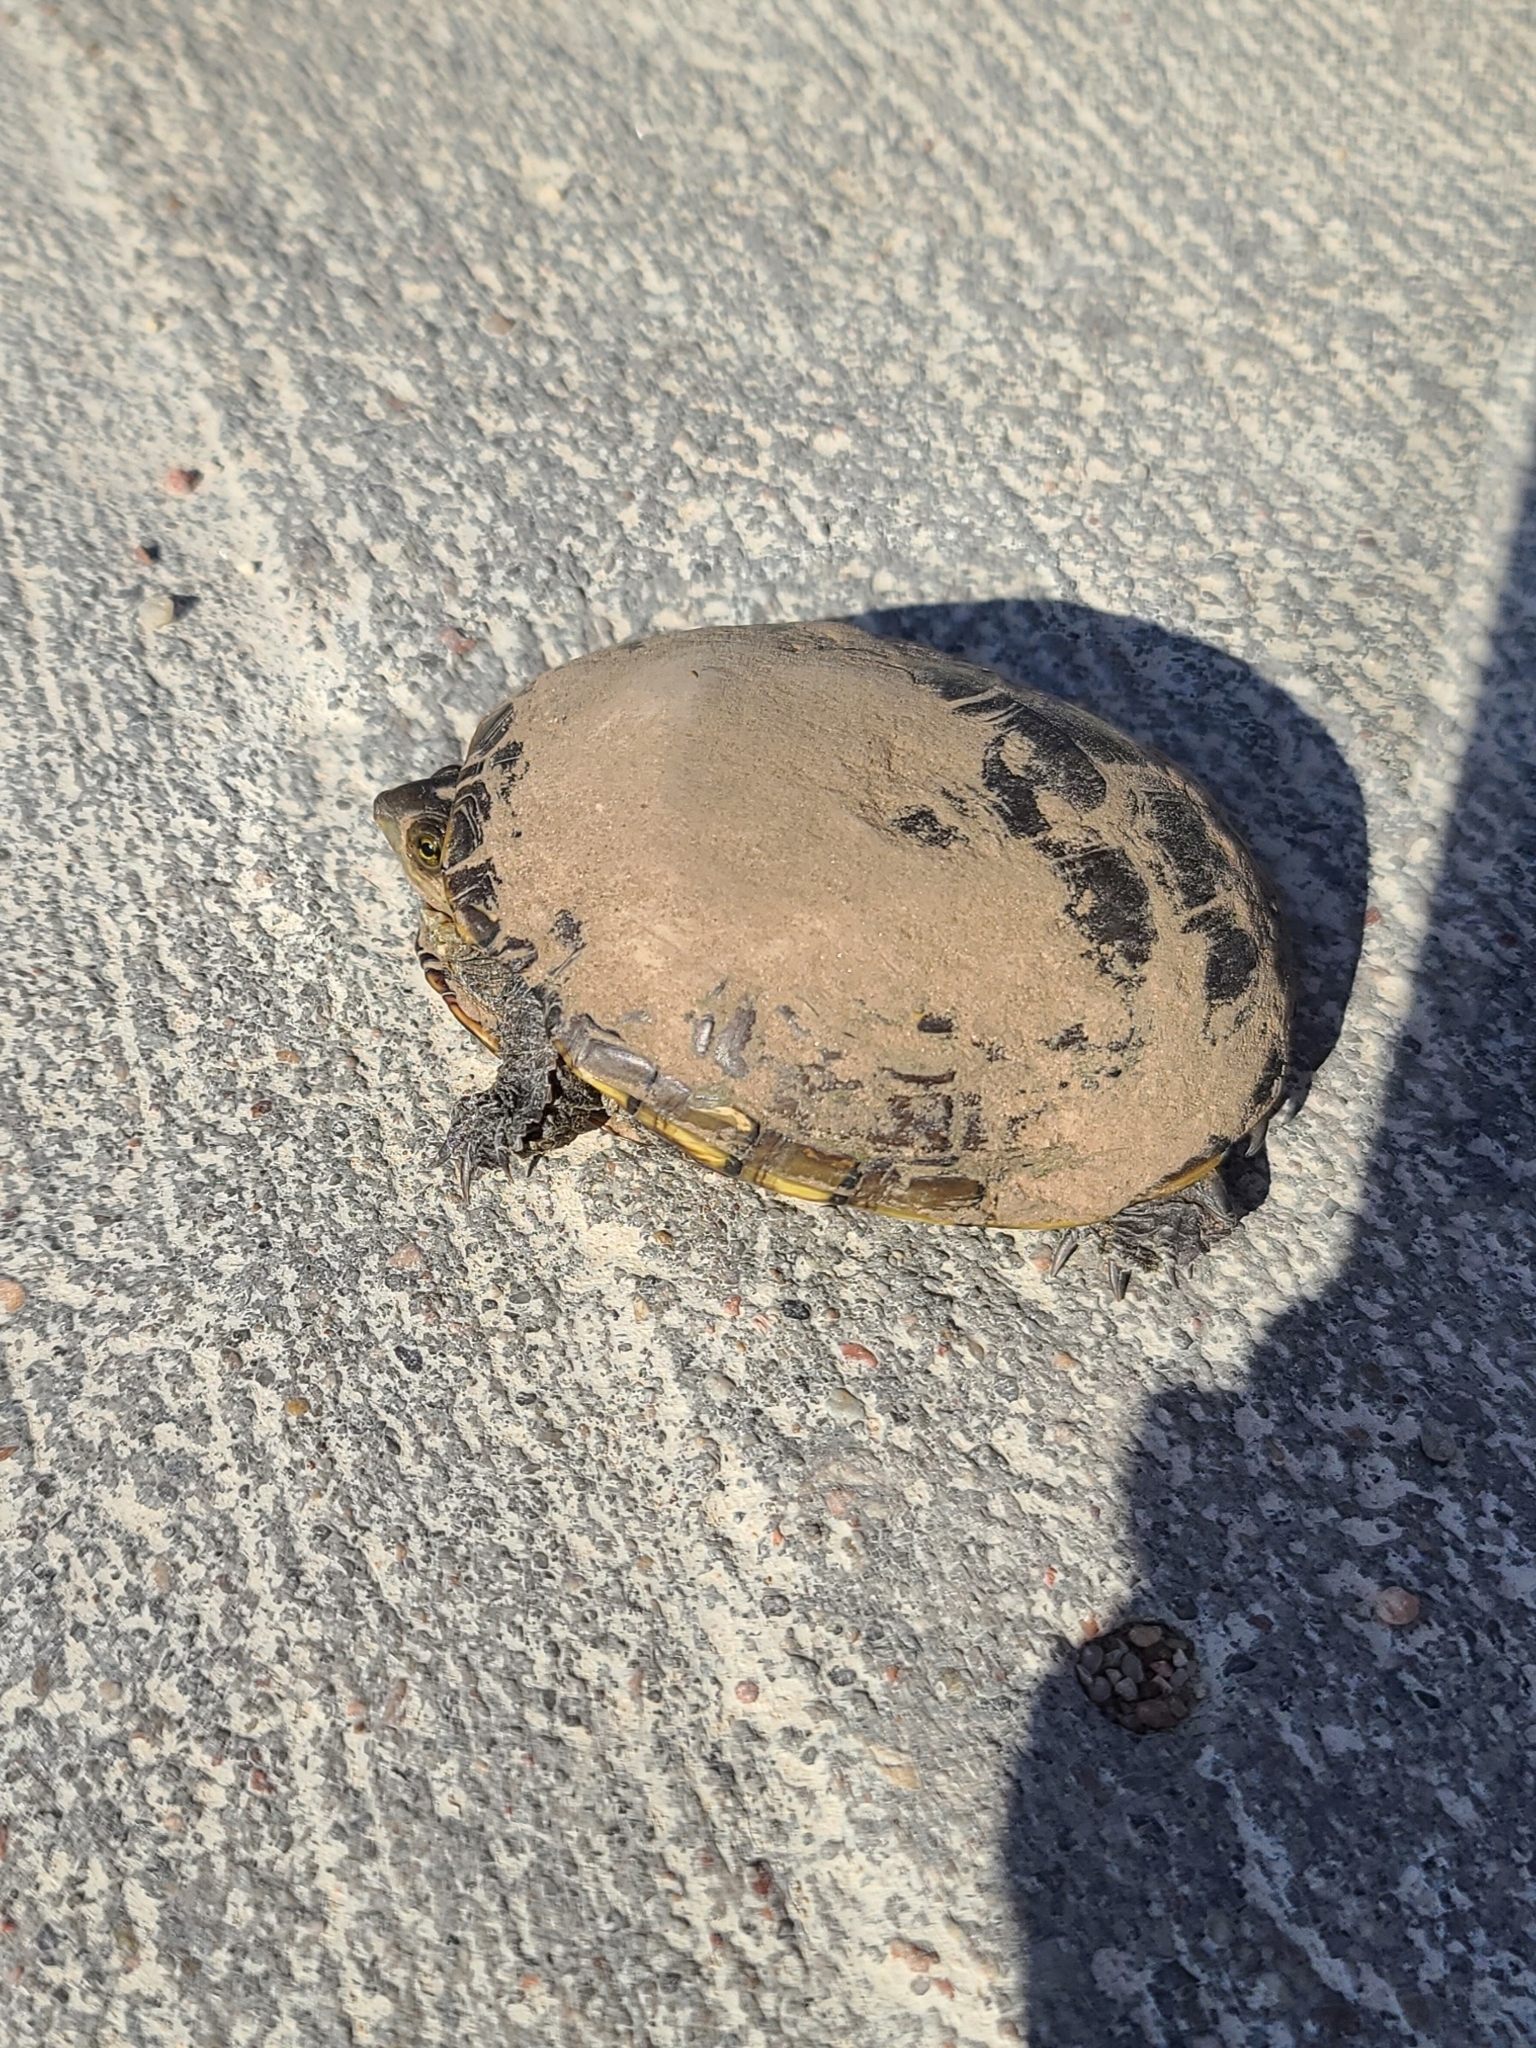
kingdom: Animalia
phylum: Chordata
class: Testudines
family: Kinosternidae
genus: Kinosternon
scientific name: Kinosternon flavescens
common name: Yellow mud turtle
